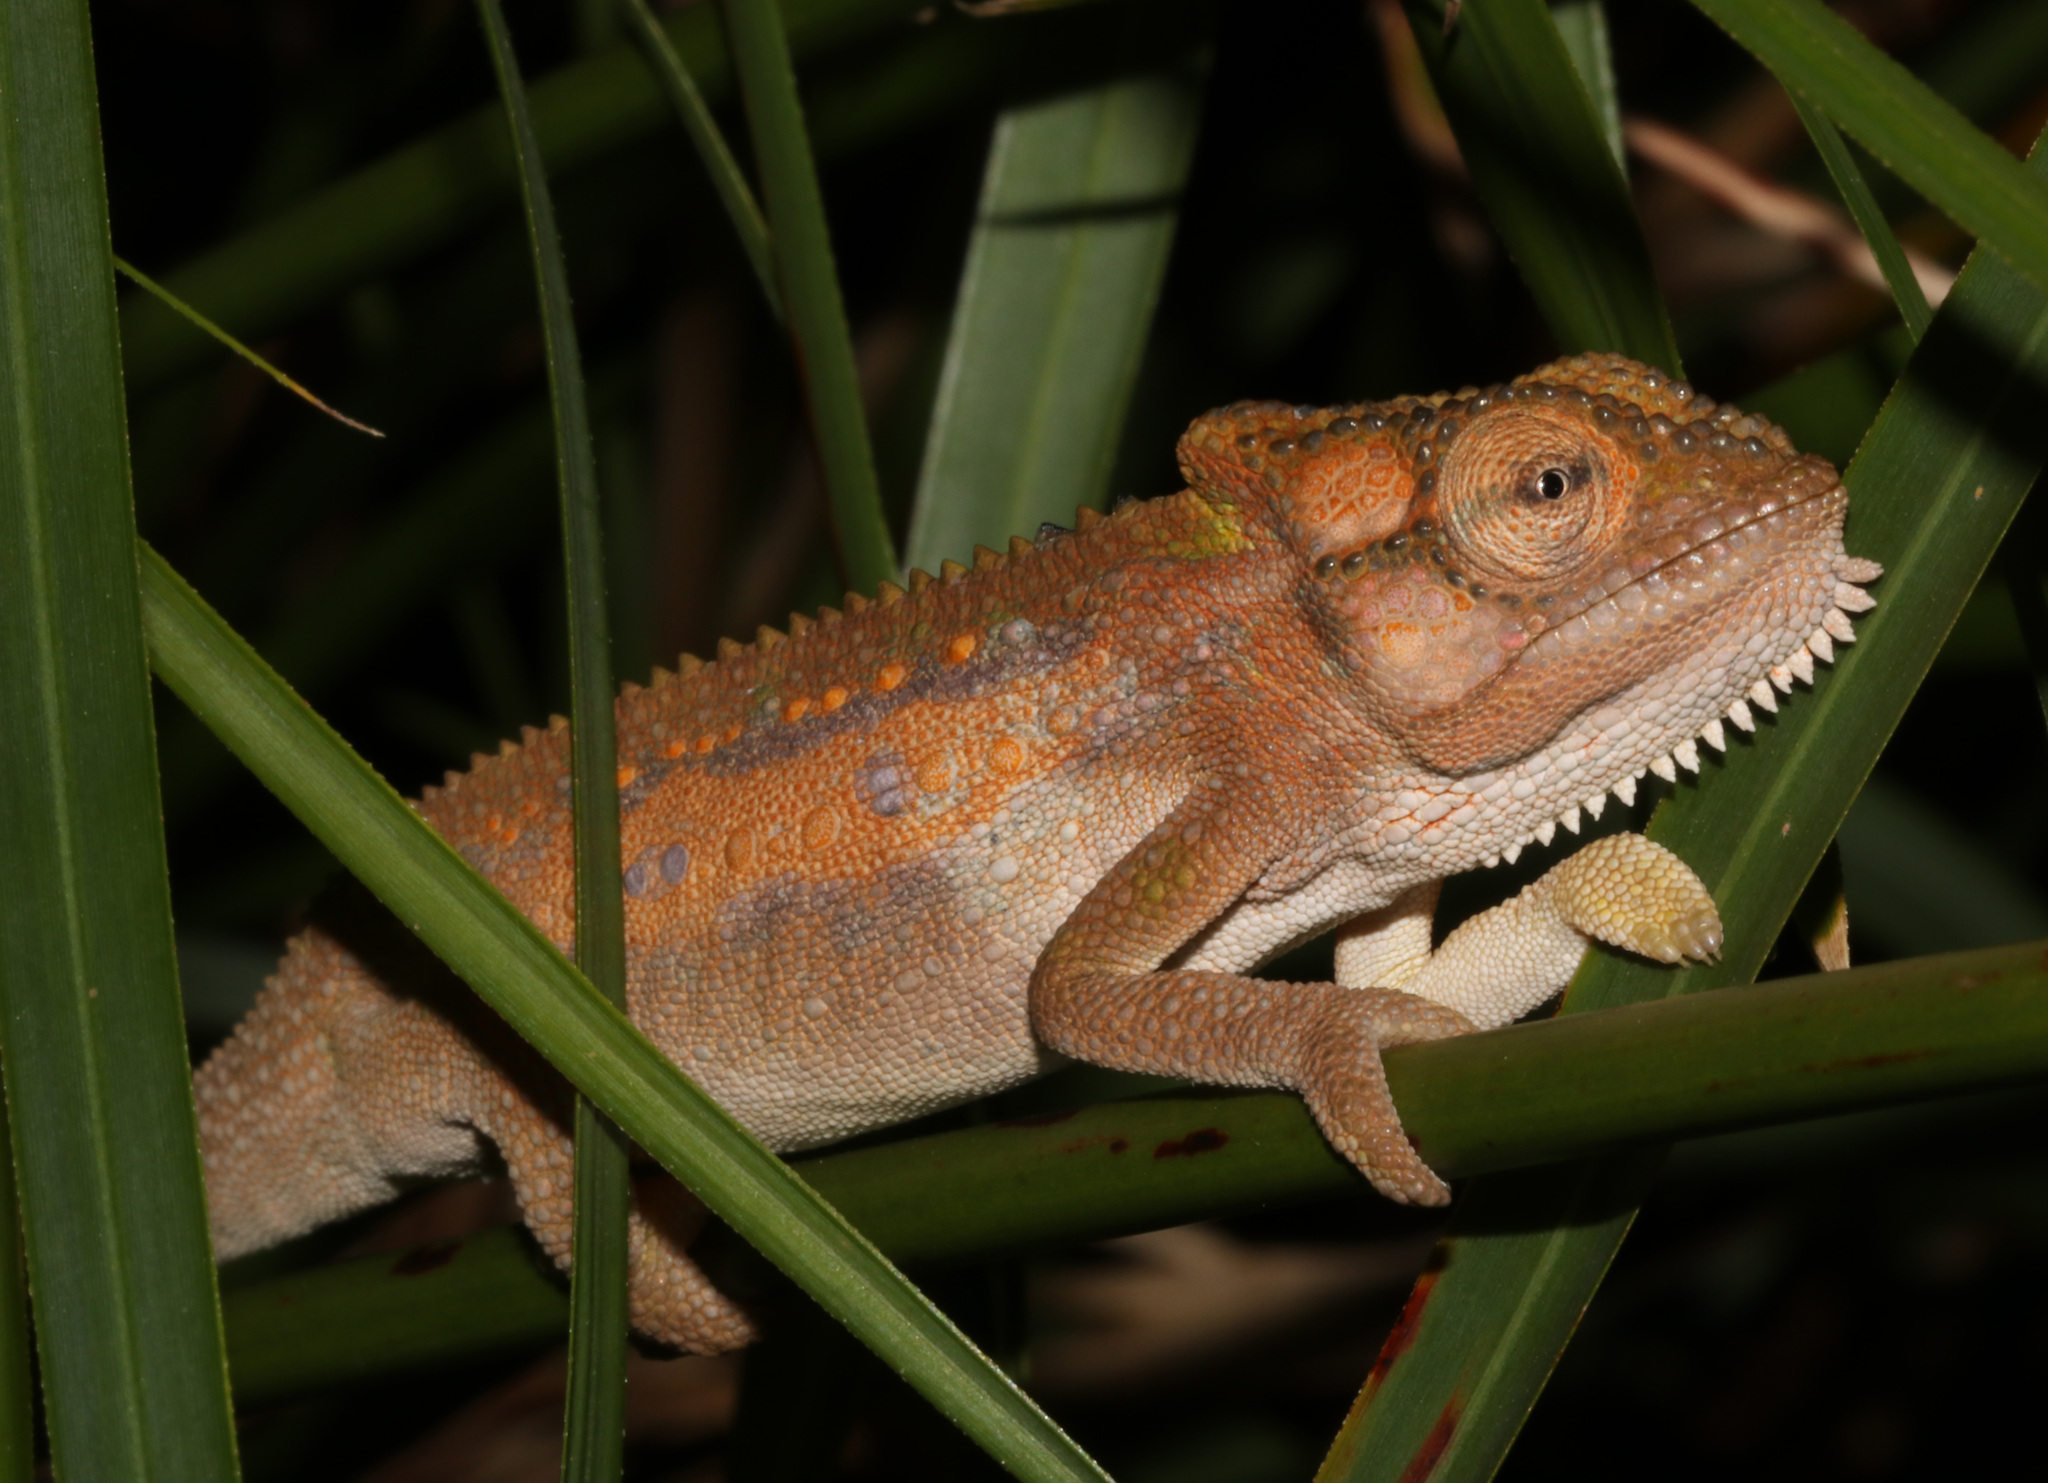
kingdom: Animalia
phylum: Chordata
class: Squamata
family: Chamaeleonidae
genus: Bradypodion
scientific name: Bradypodion pumilum
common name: Cape dwarf chameleon
